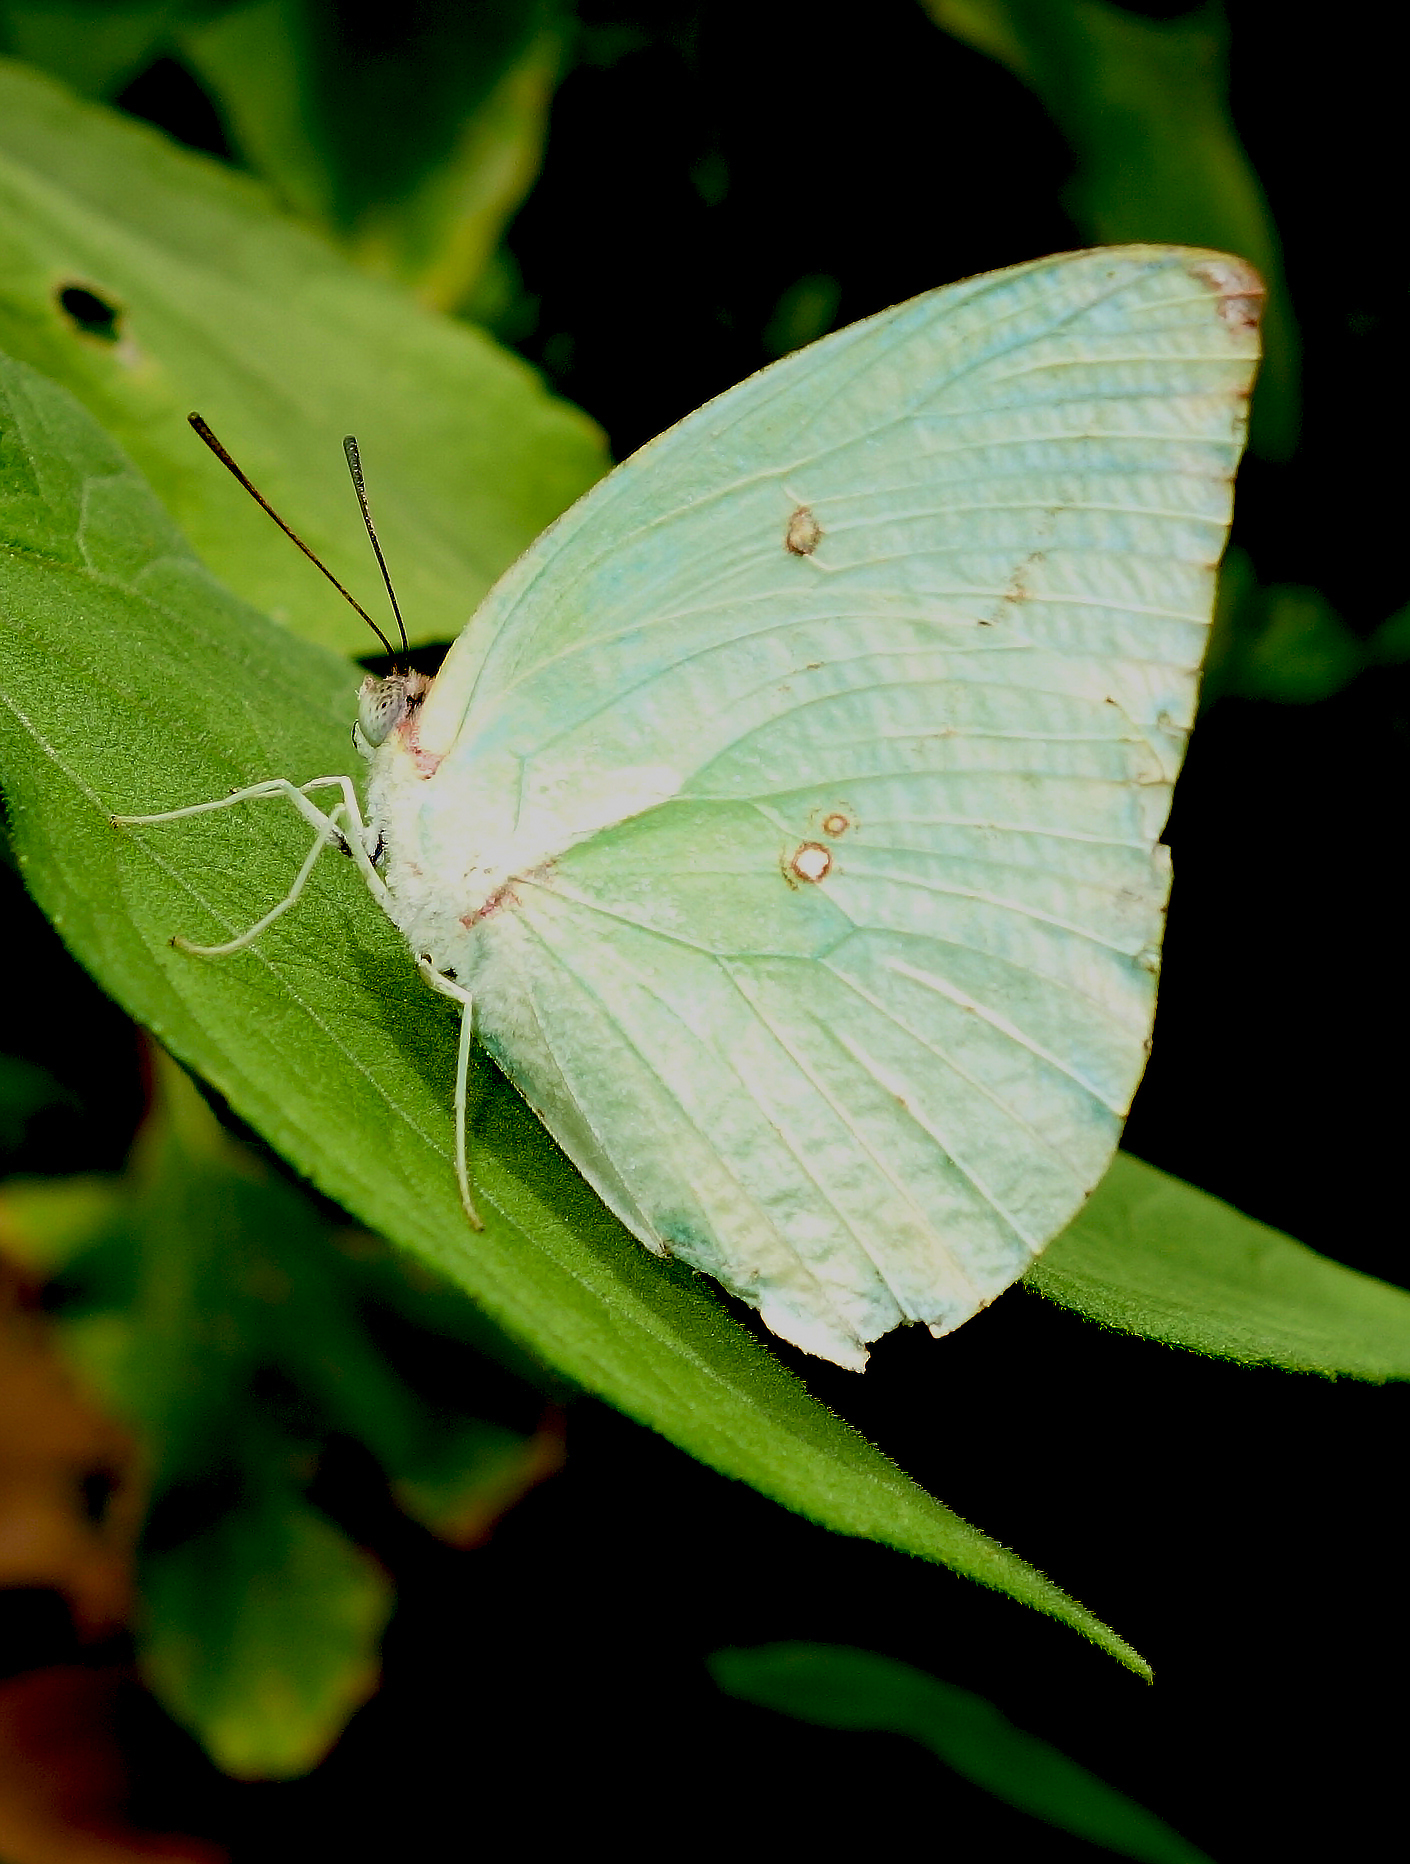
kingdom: Animalia
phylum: Arthropoda
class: Insecta
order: Lepidoptera
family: Pieridae
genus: Catopsilia
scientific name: Catopsilia pomona
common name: Common emigrant
